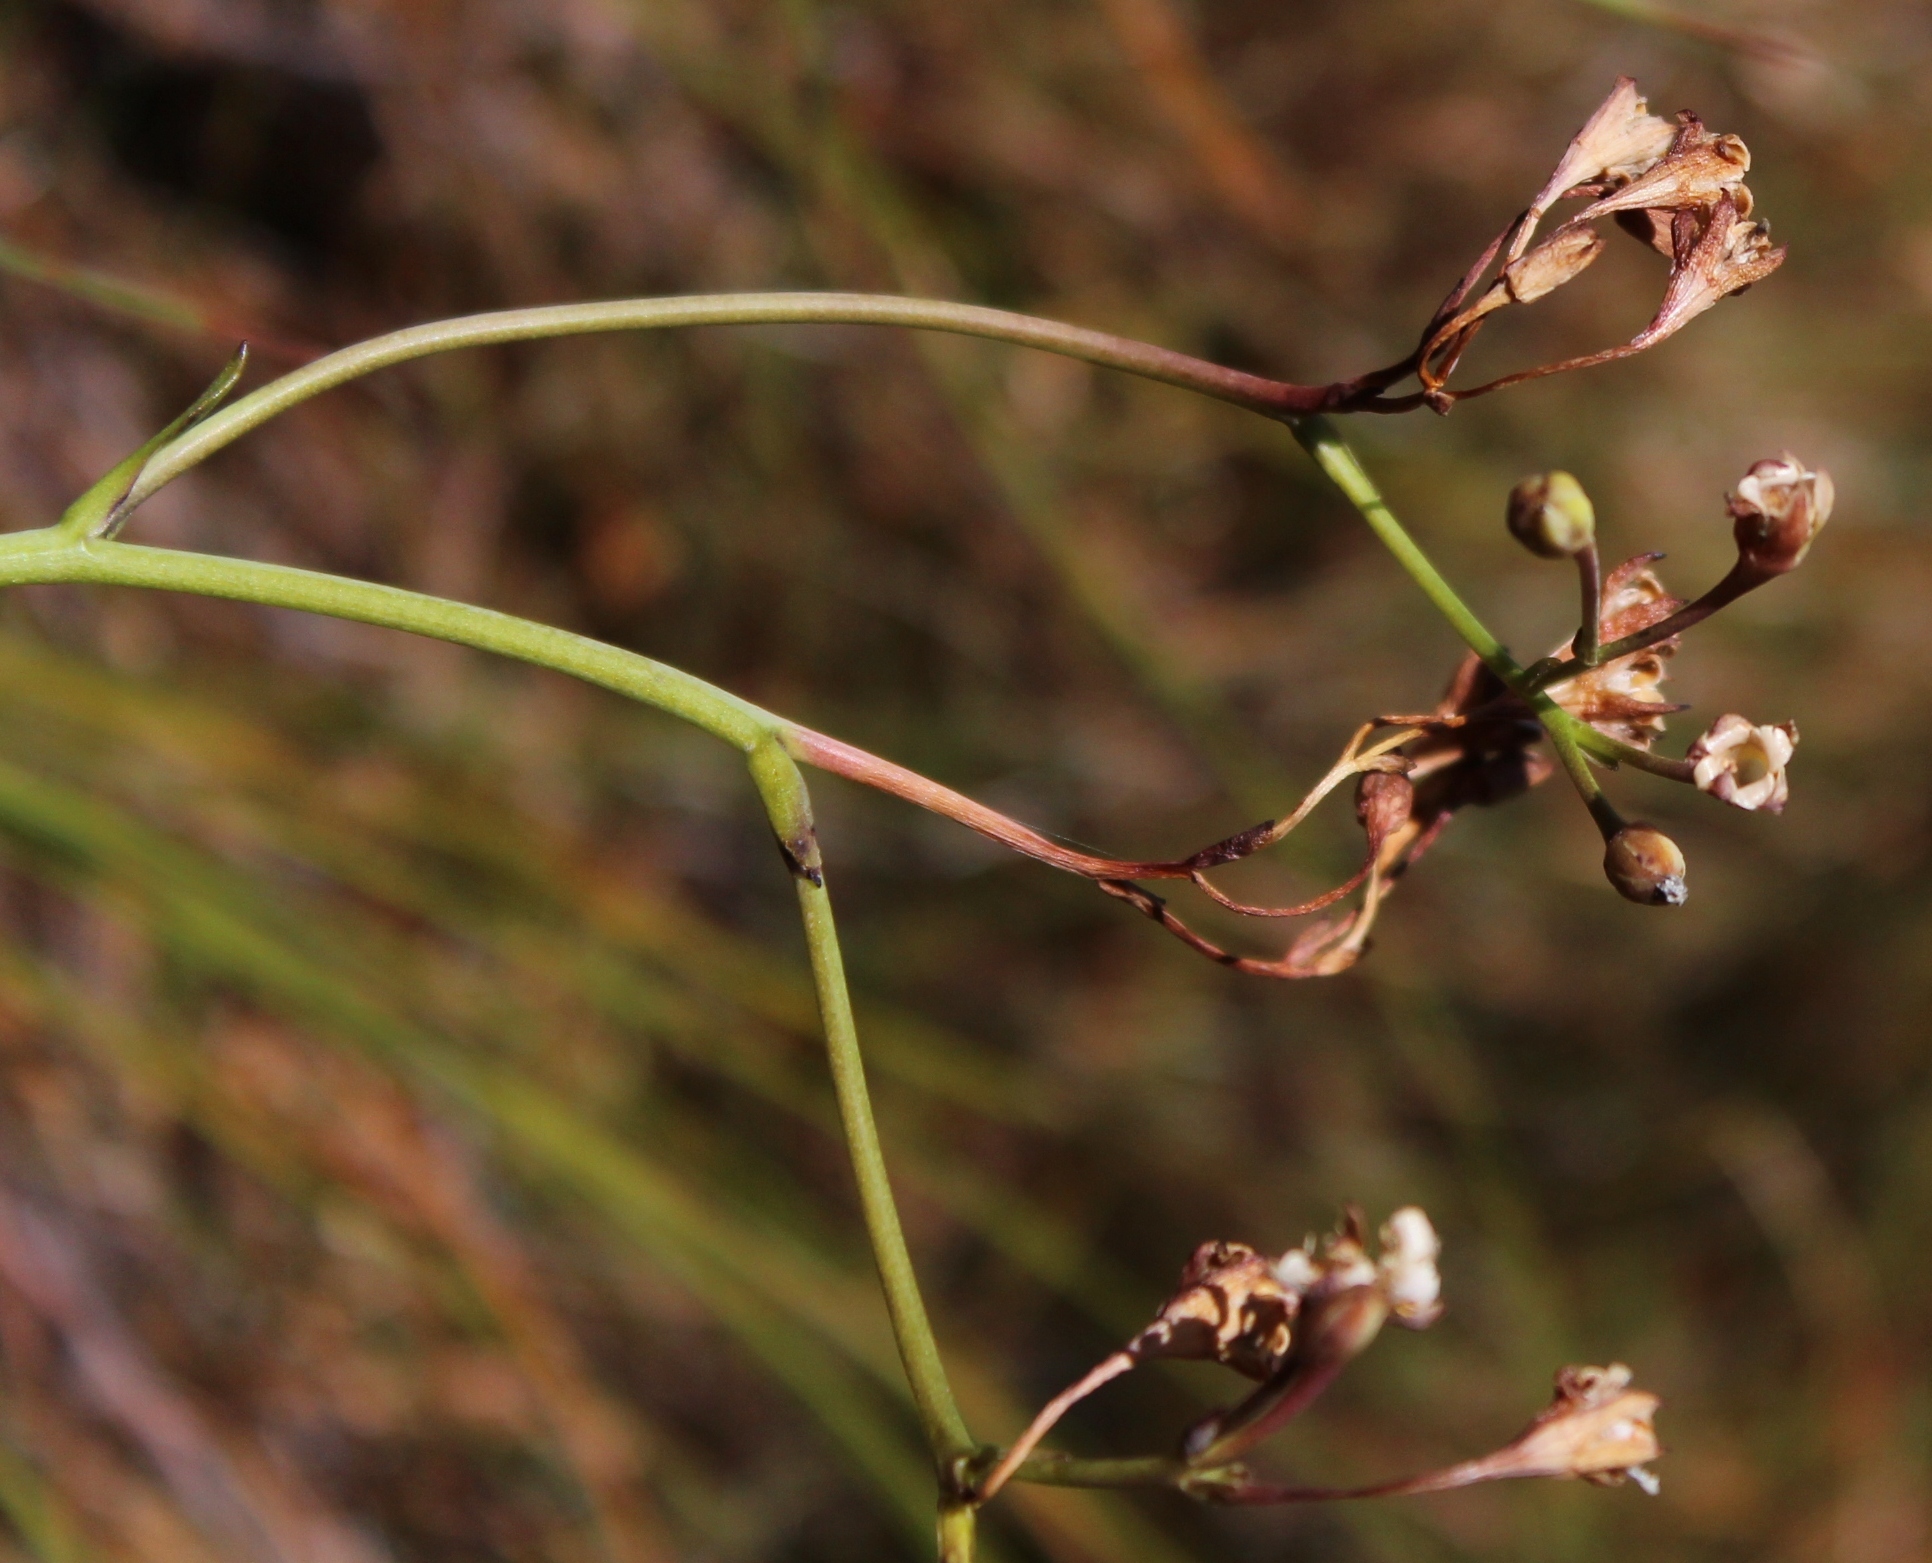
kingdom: Plantae
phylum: Tracheophyta
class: Magnoliopsida
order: Asterales
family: Menyanthaceae
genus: Villarsia
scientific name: Villarsia capensis
